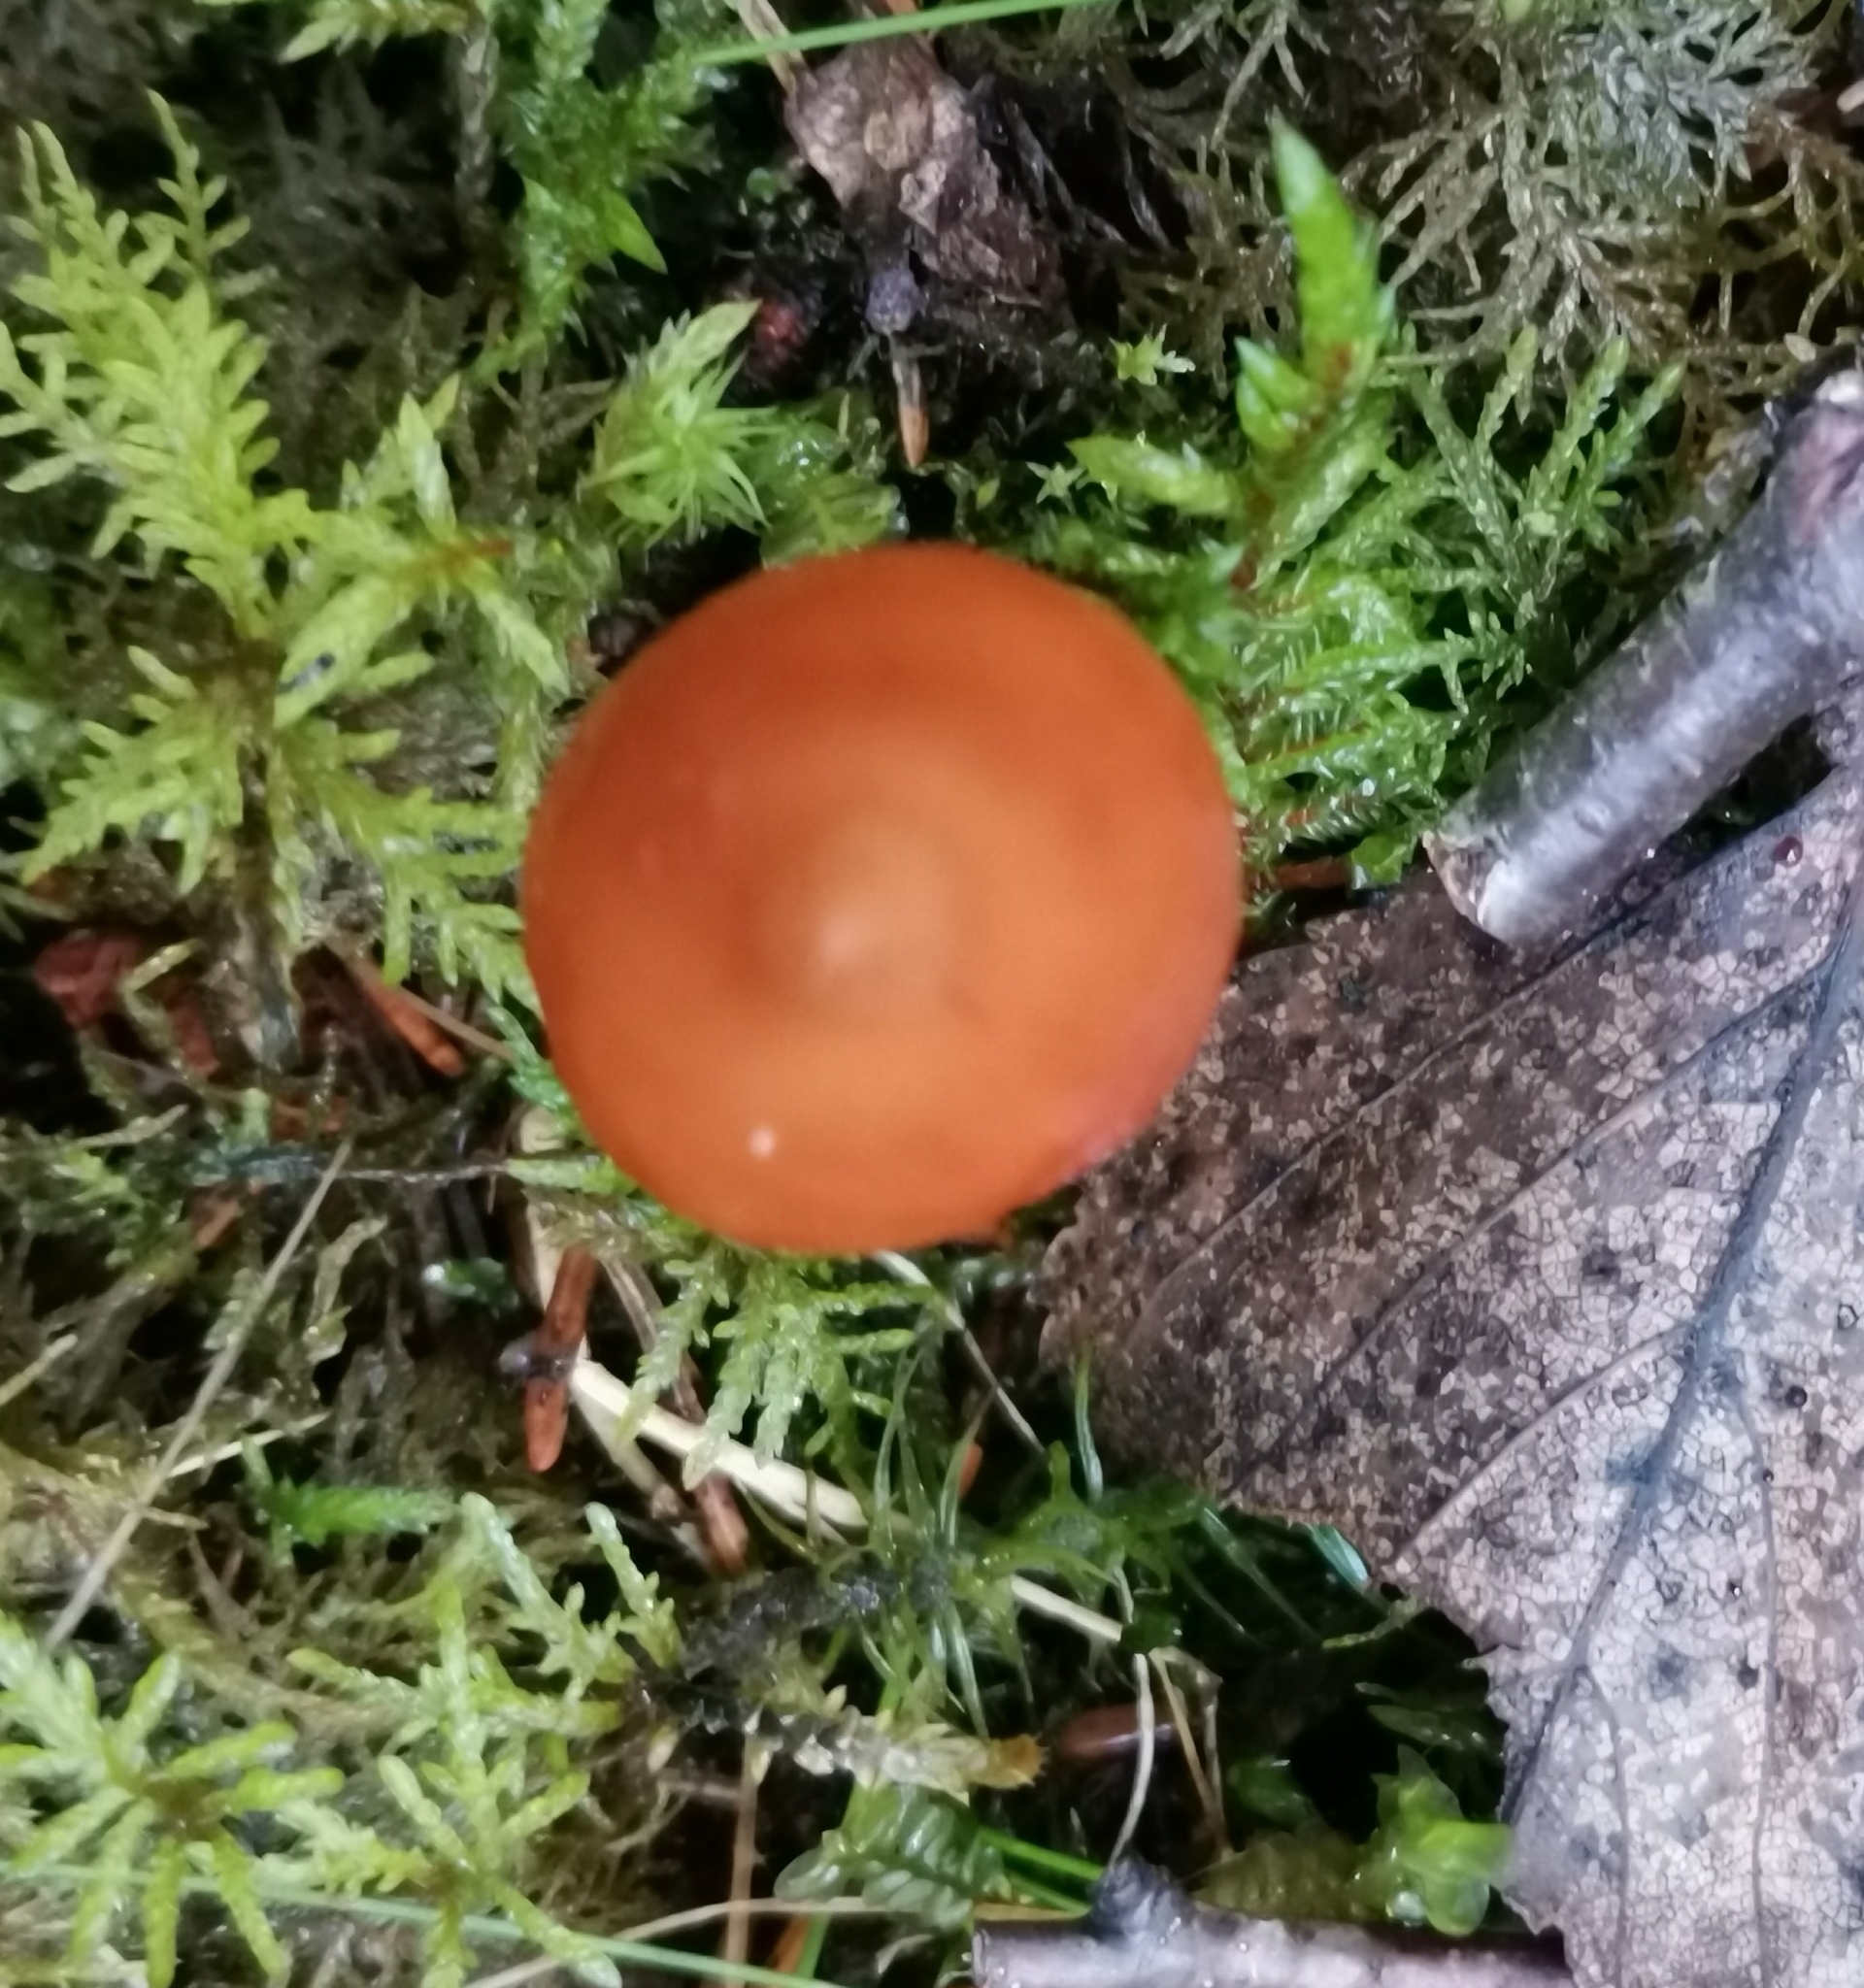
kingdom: Fungi
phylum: Basidiomycota
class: Agaricomycetes
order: Agaricales
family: Hymenogastraceae
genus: Phaeocollybia
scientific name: Phaeocollybia christinae
